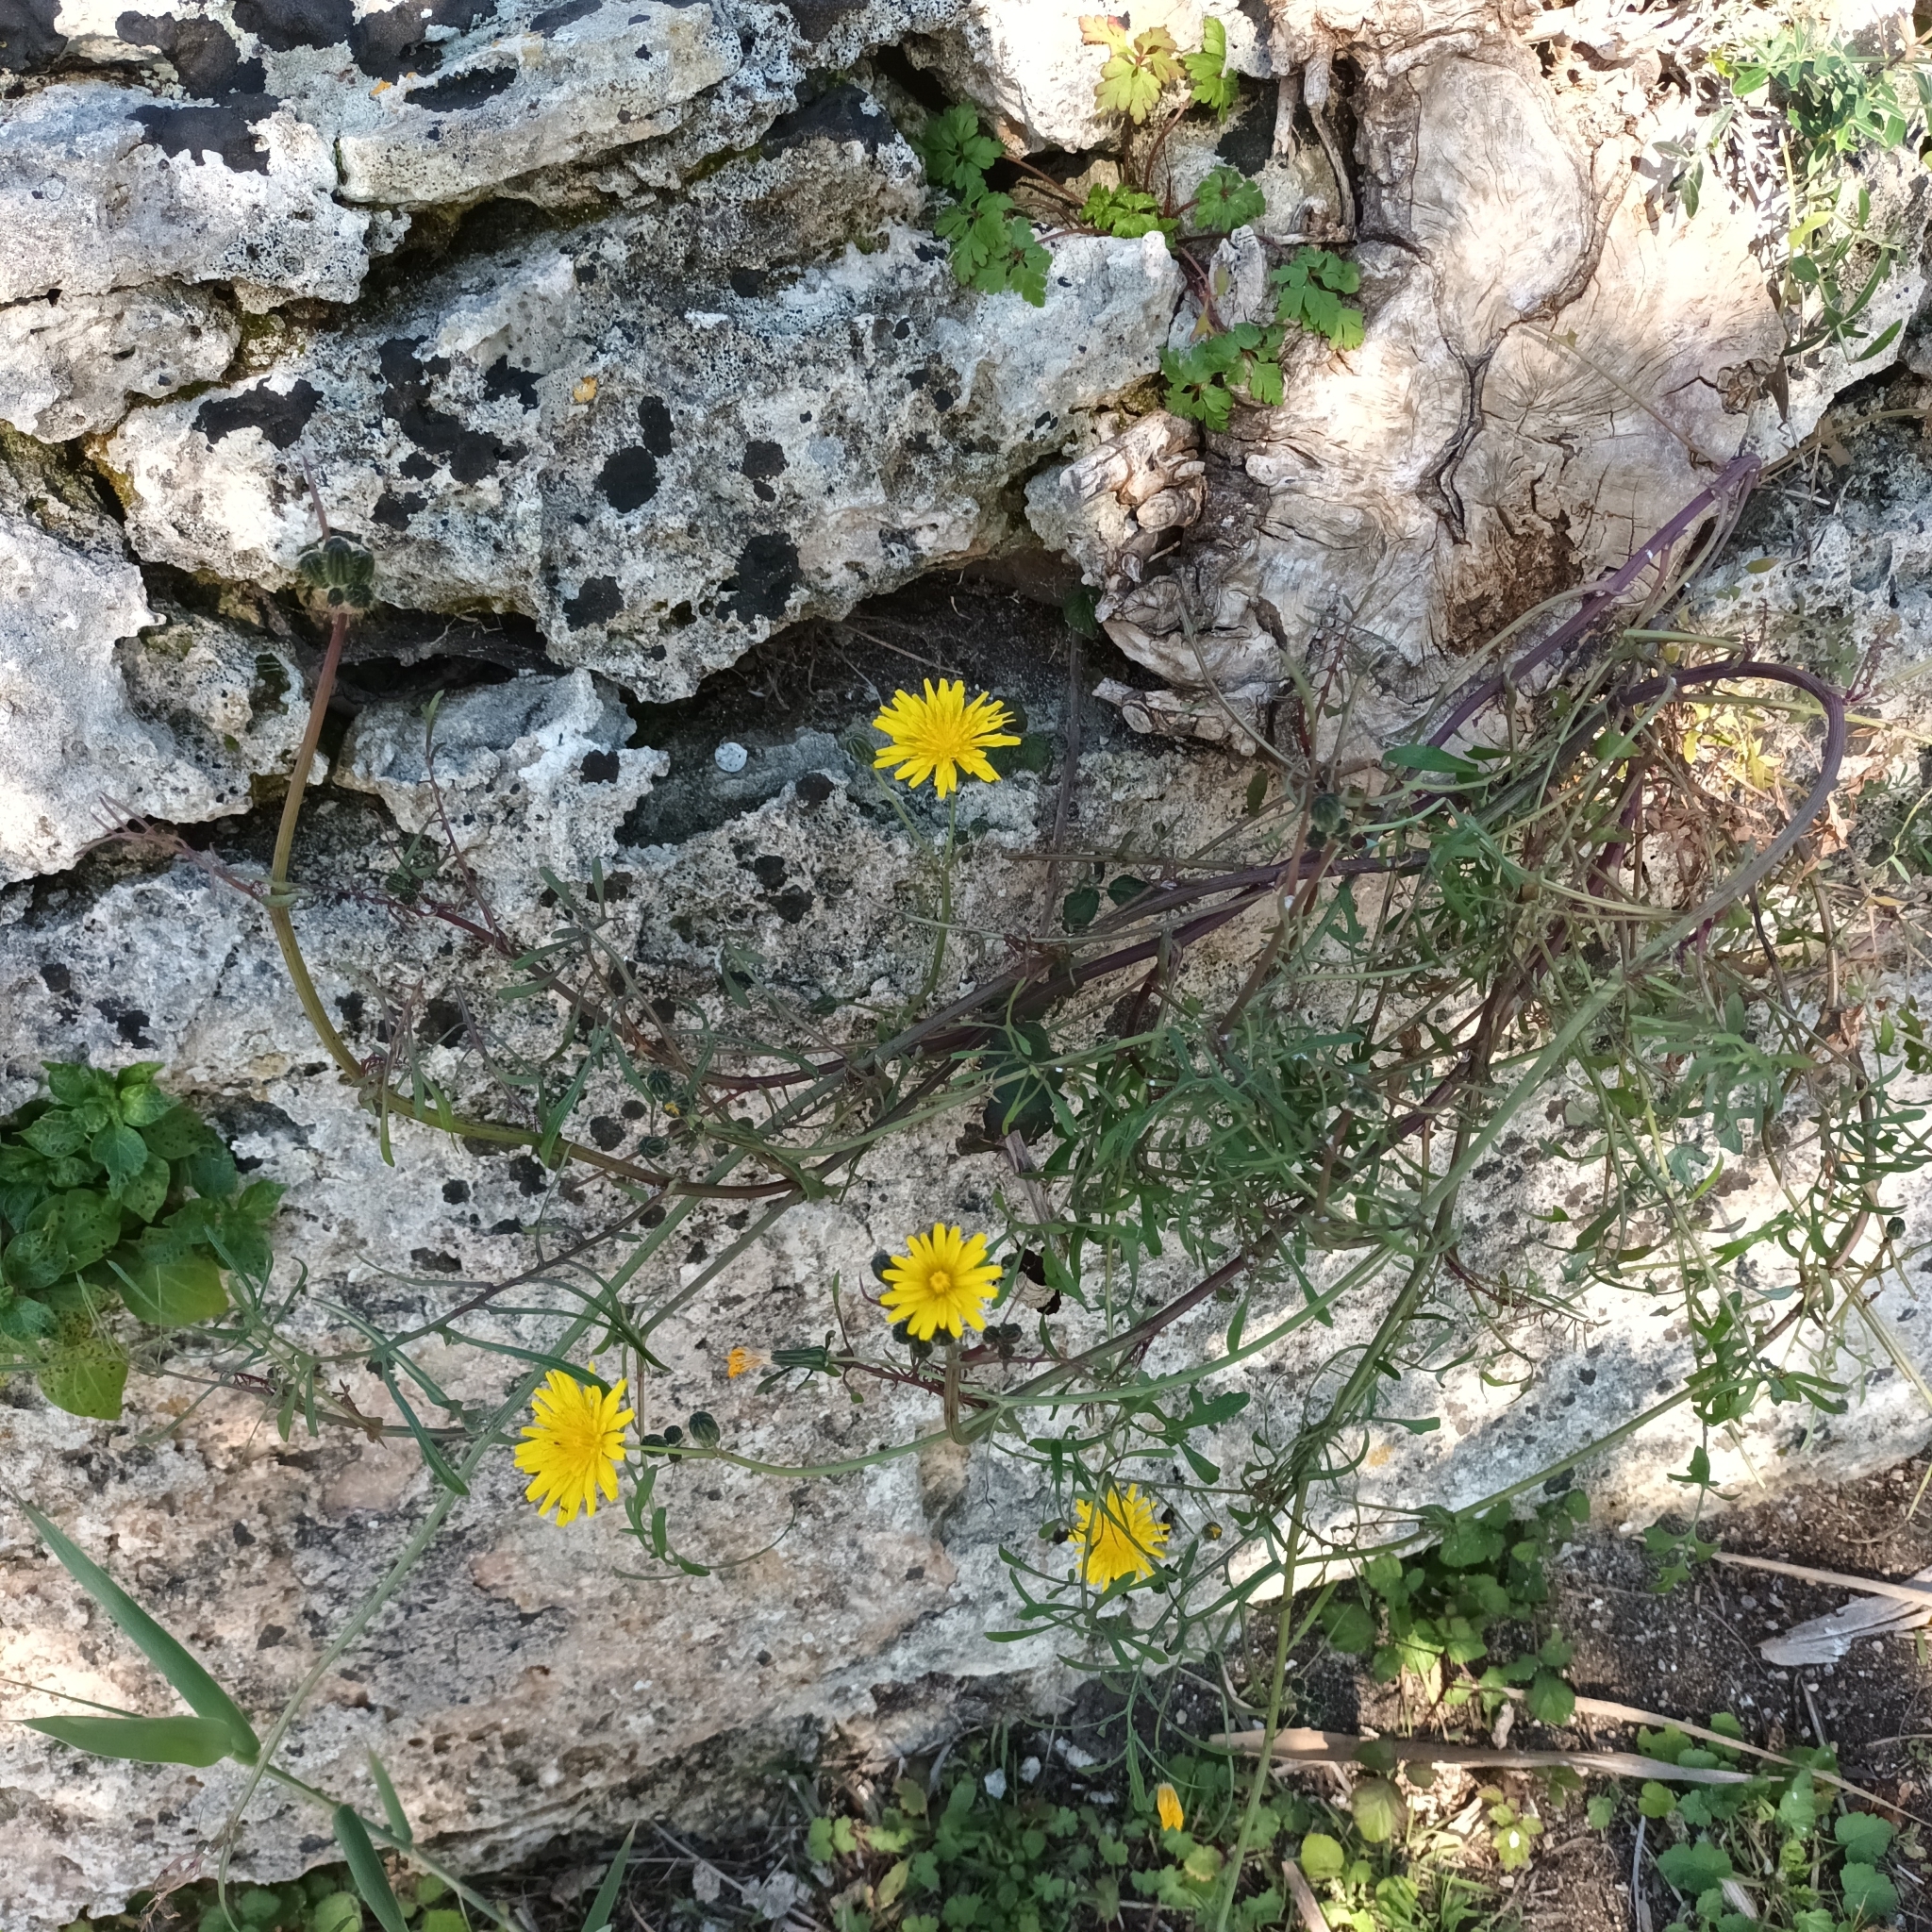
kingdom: Plantae
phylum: Tracheophyta
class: Magnoliopsida
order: Asterales
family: Asteraceae
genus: Sonchus
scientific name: Sonchus tenerrimus
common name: Clammy sowthistle
